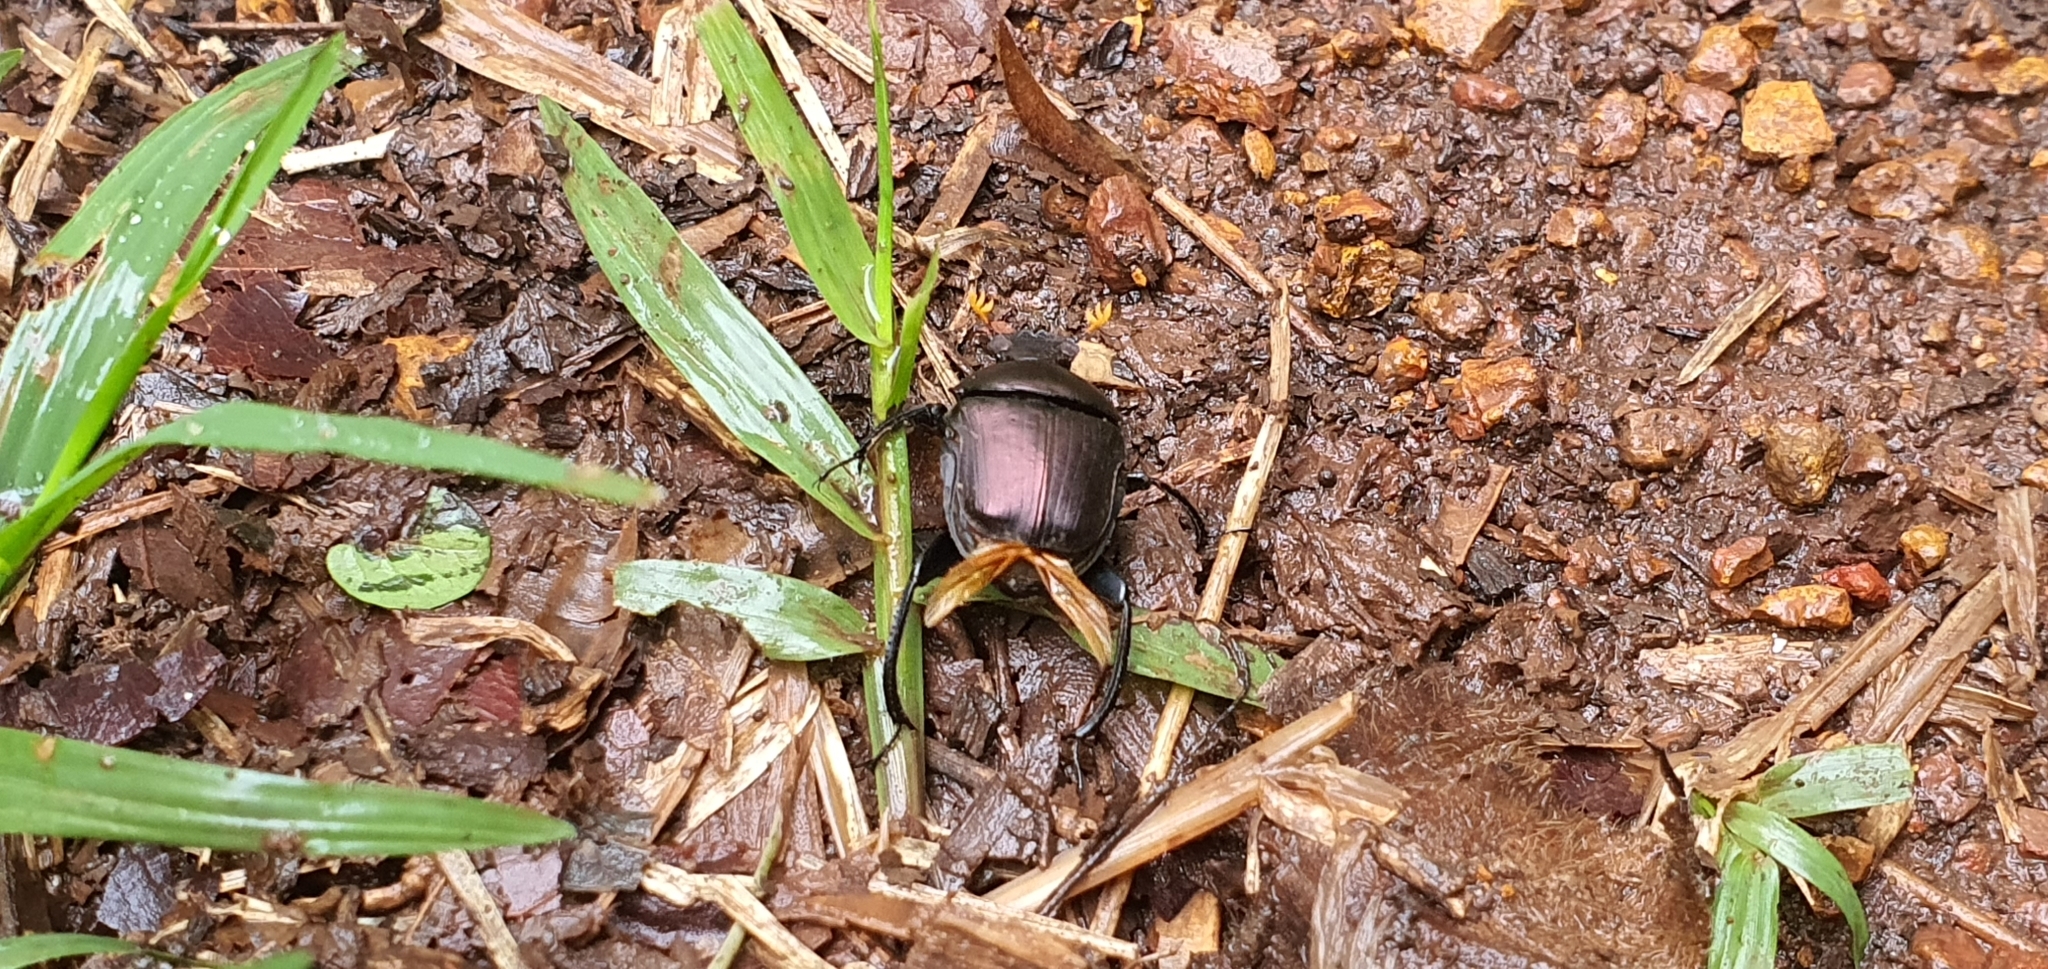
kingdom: Animalia
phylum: Arthropoda
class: Insecta
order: Coleoptera
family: Scarabaeidae
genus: Paragymnopleurus
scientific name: Paragymnopleurus sinuatus
